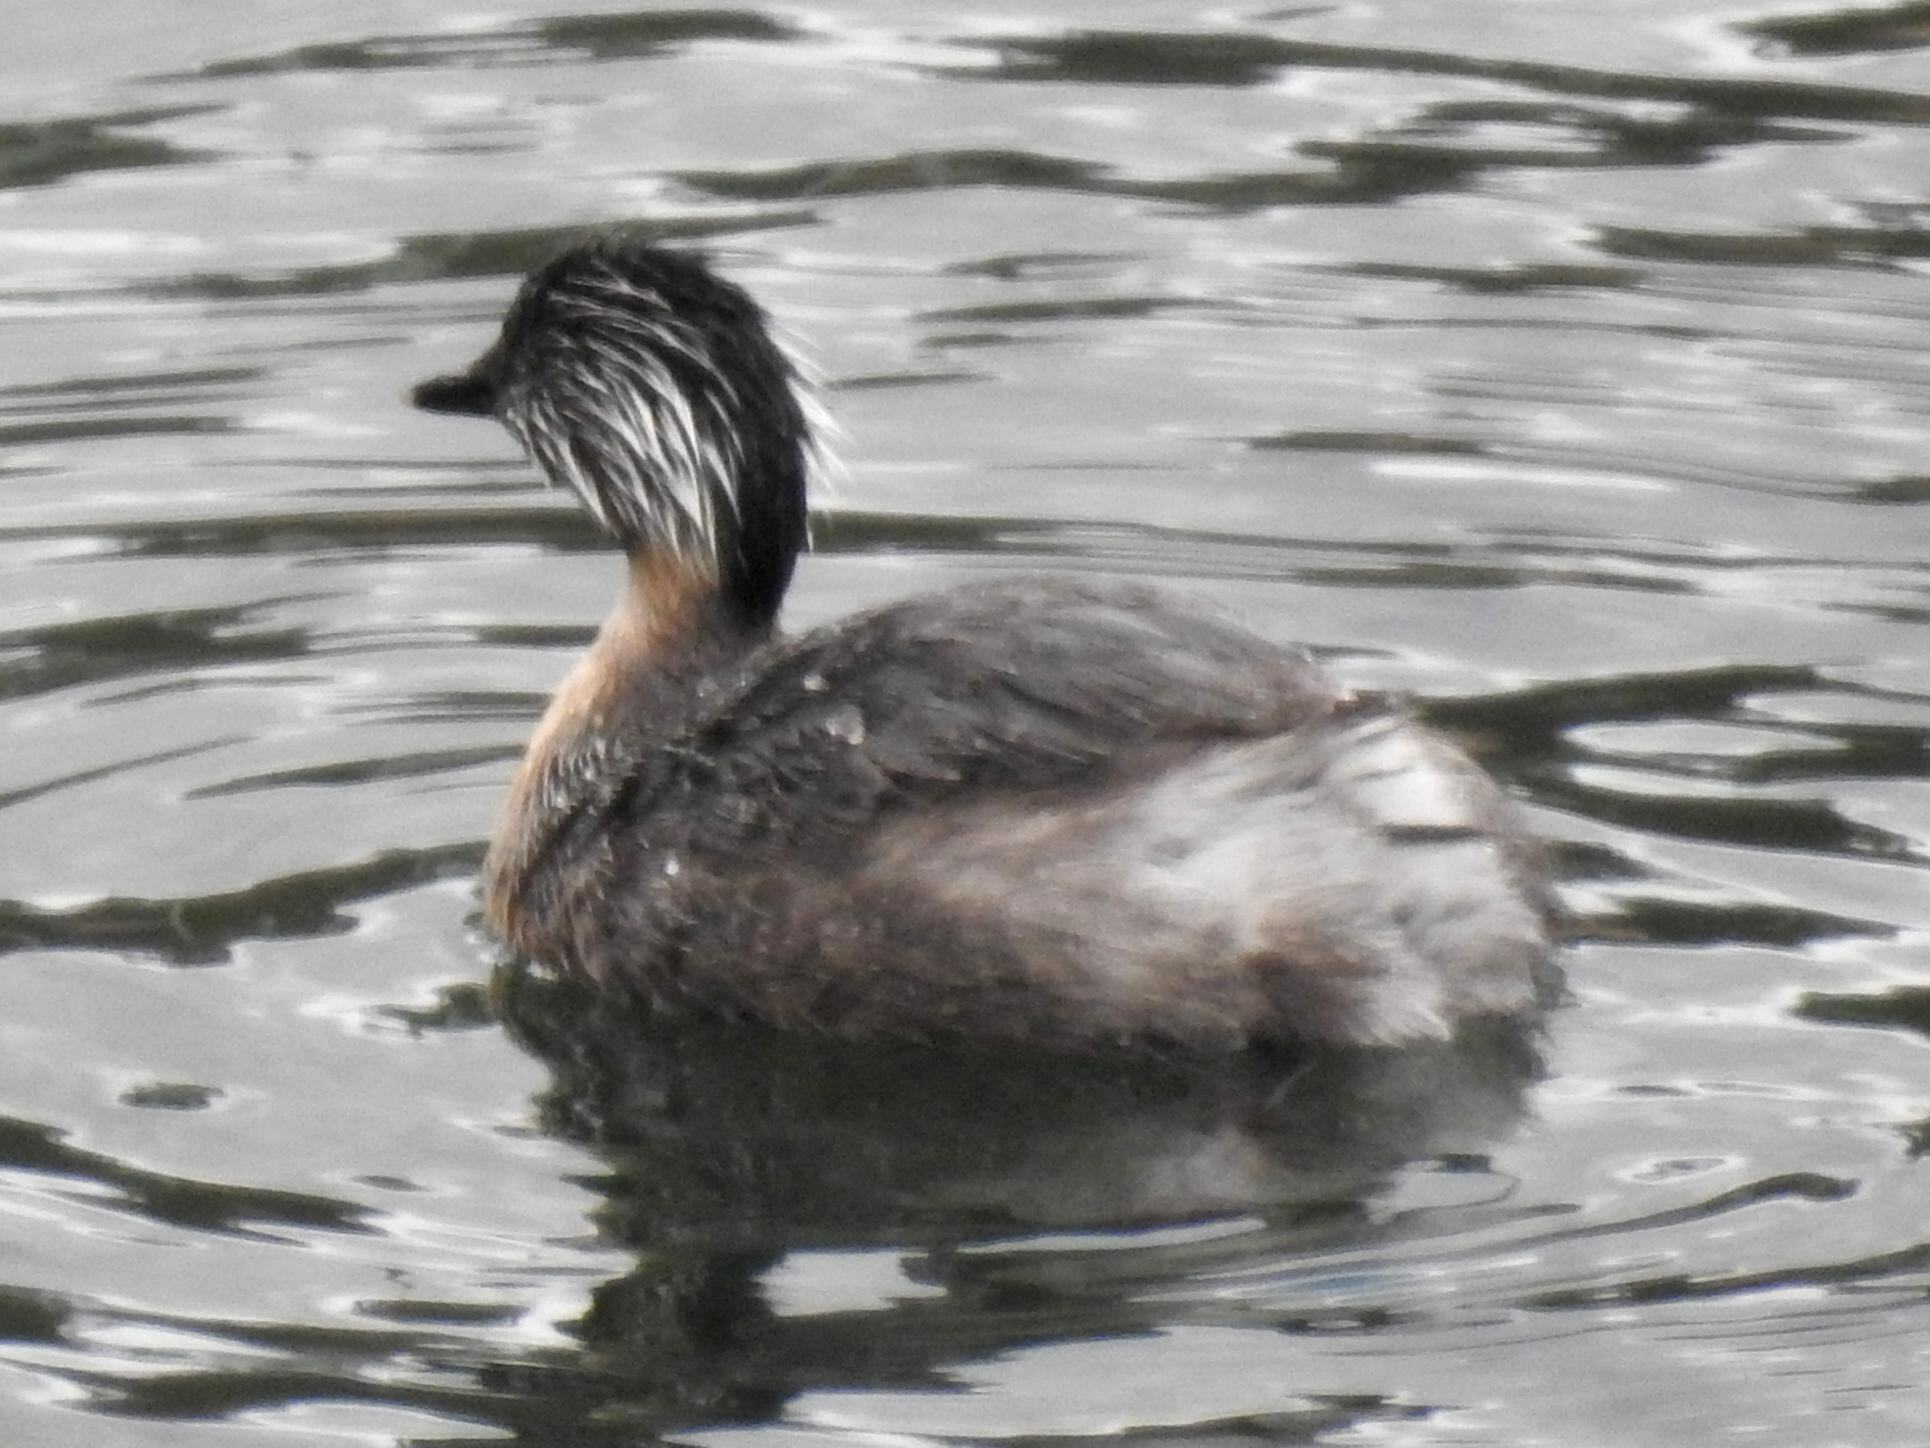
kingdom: Animalia
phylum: Chordata
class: Aves
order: Podicipediformes
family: Podicipedidae
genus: Poliocephalus
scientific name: Poliocephalus poliocephalus
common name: Hoary-headed grebe
